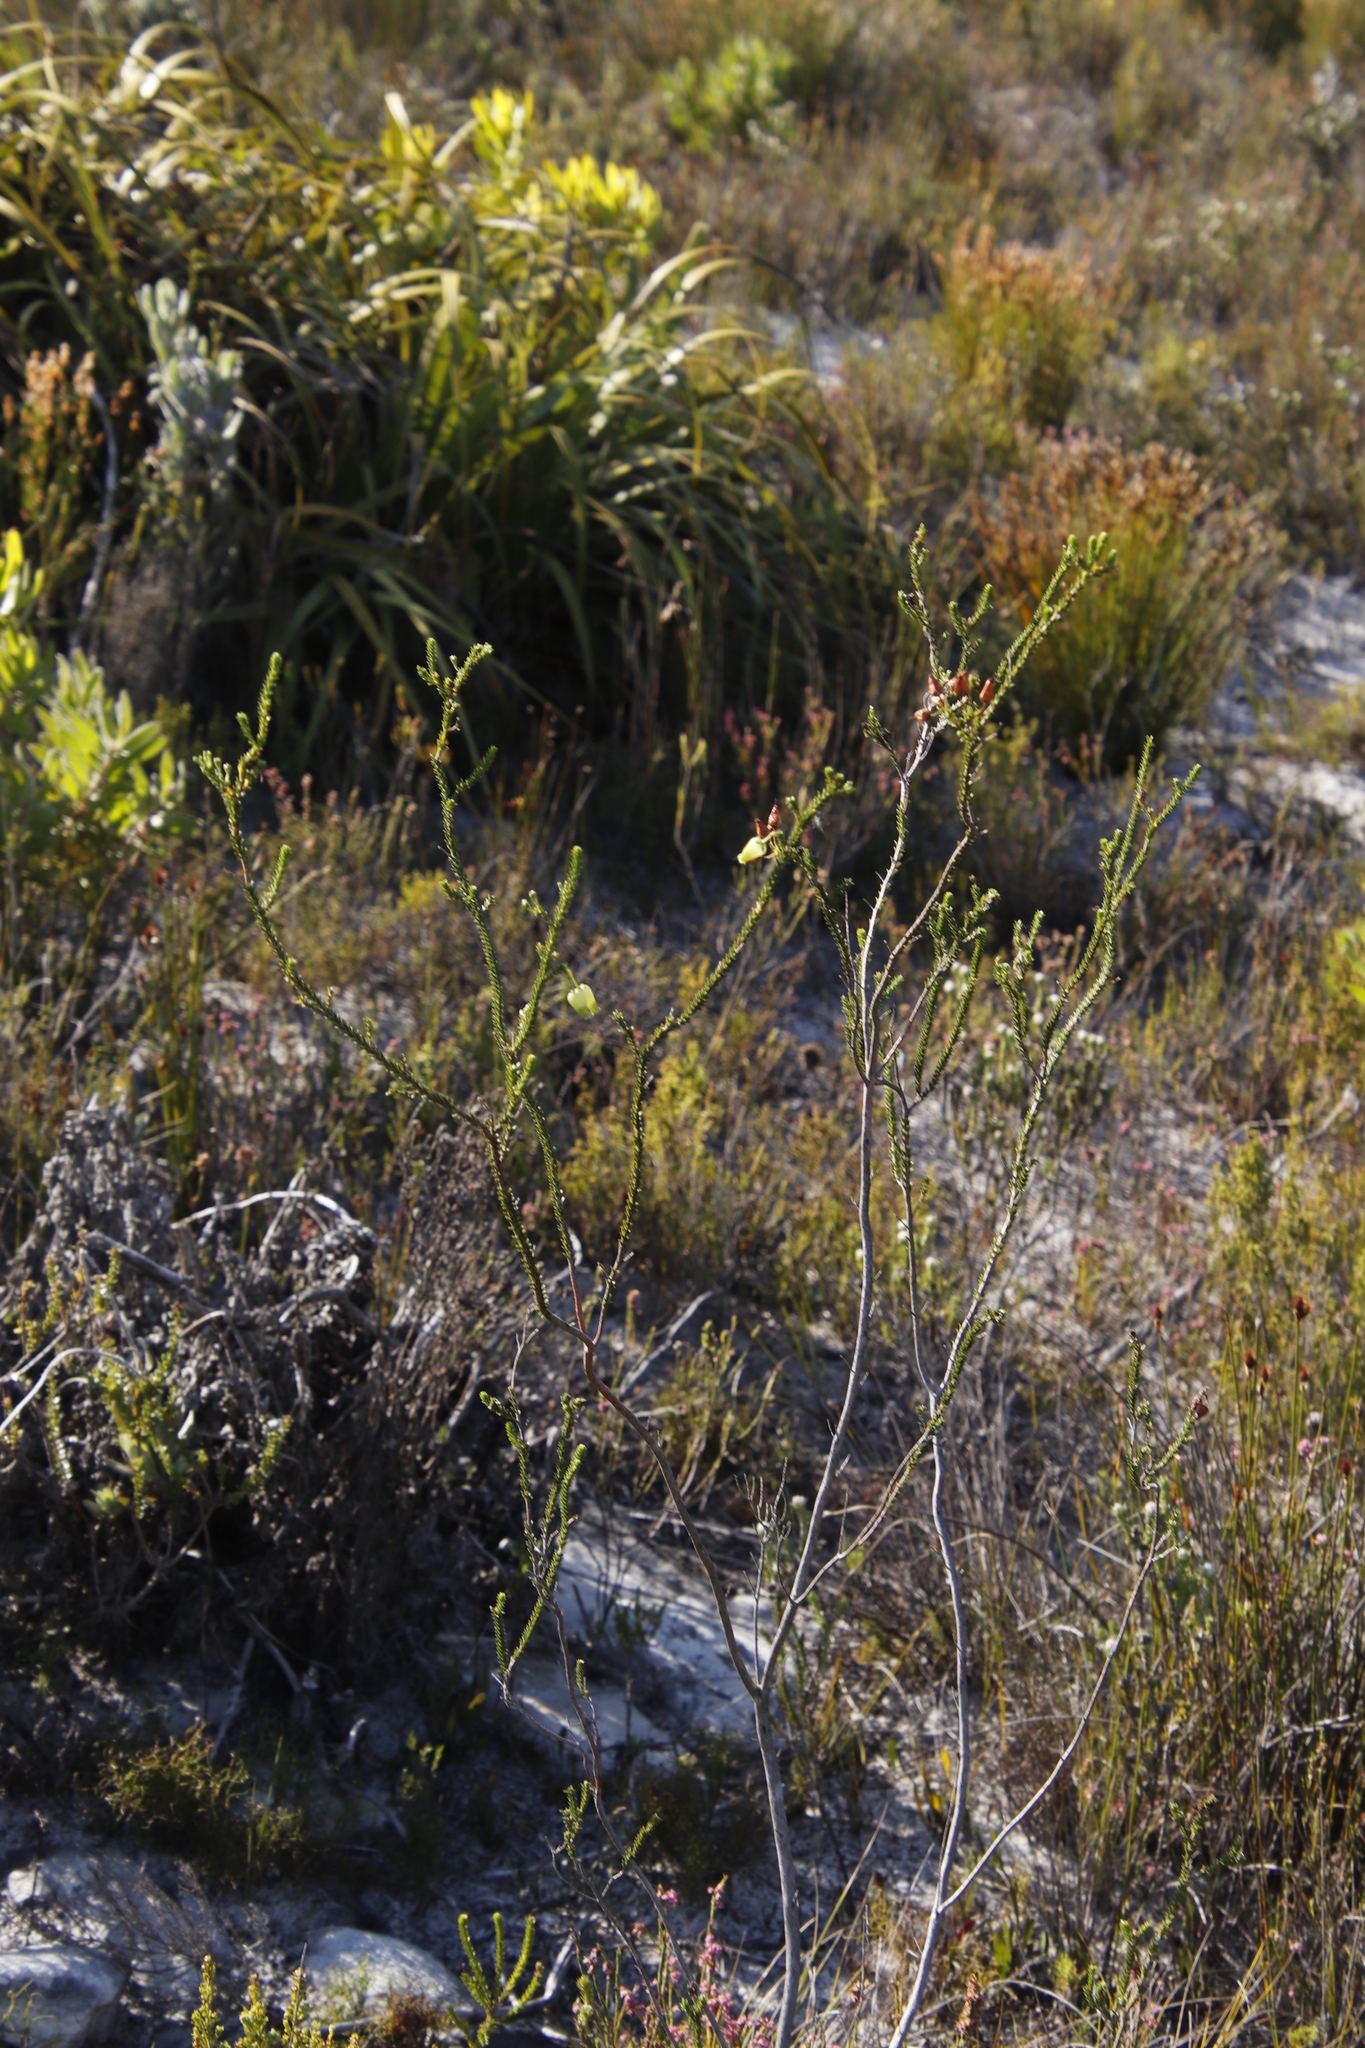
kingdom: Plantae
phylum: Tracheophyta
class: Magnoliopsida
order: Ericales
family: Ericaceae
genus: Erica
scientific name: Erica urna-viridis
